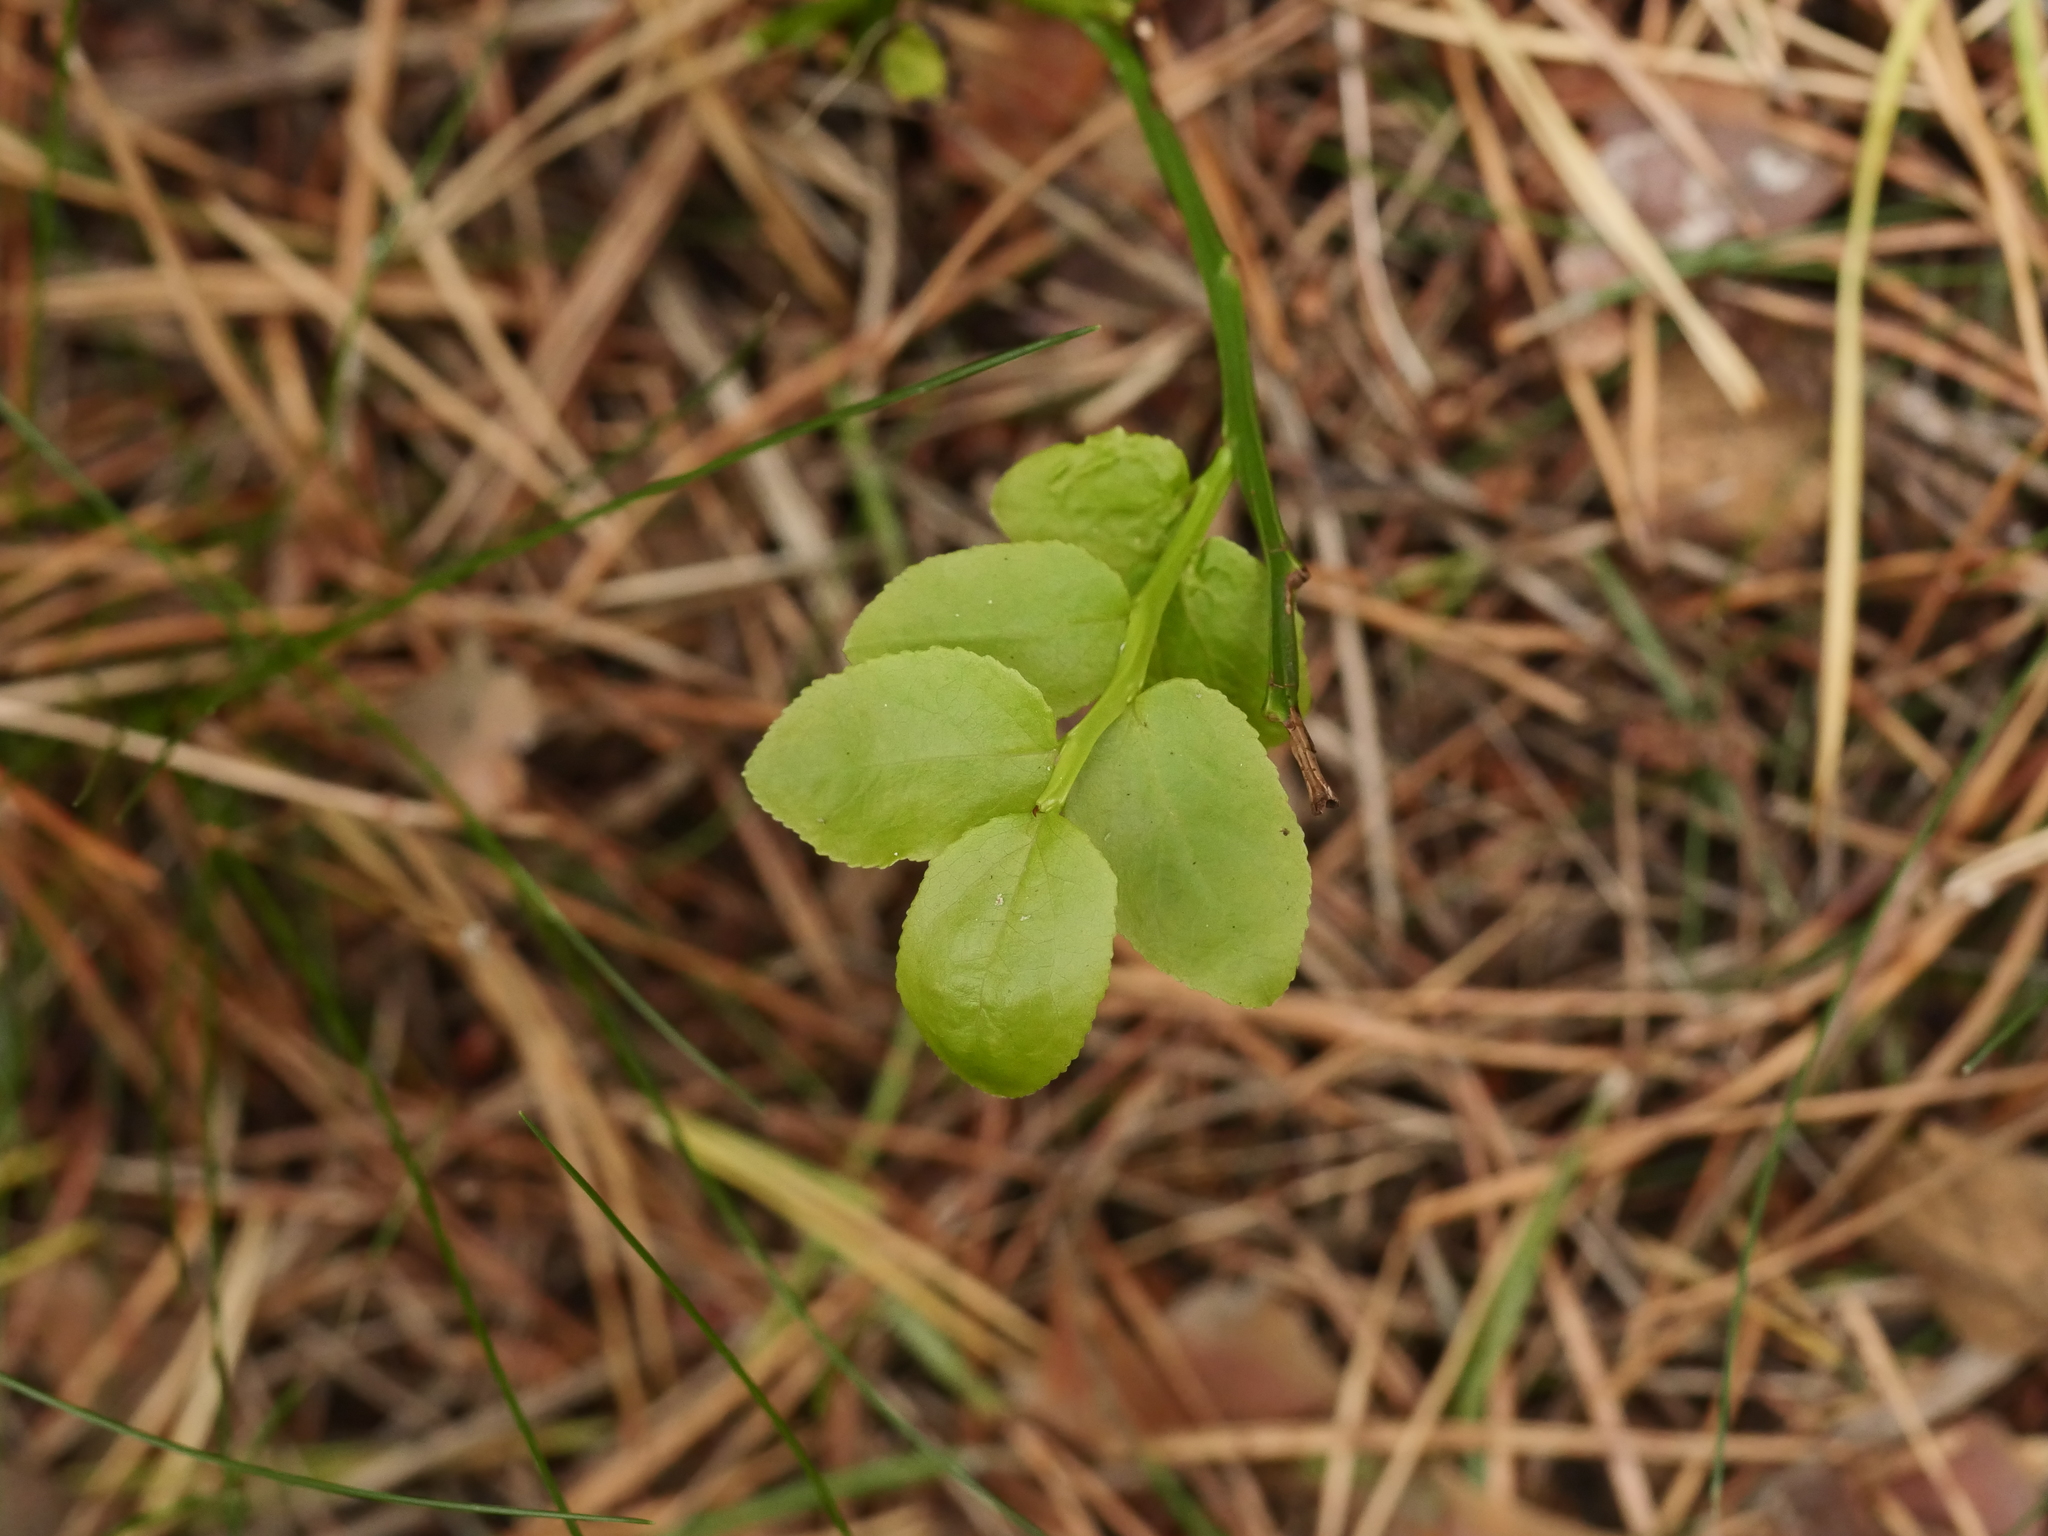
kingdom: Plantae
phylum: Tracheophyta
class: Magnoliopsida
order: Ericales
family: Ericaceae
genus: Vaccinium
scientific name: Vaccinium myrtillus
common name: Bilberry
